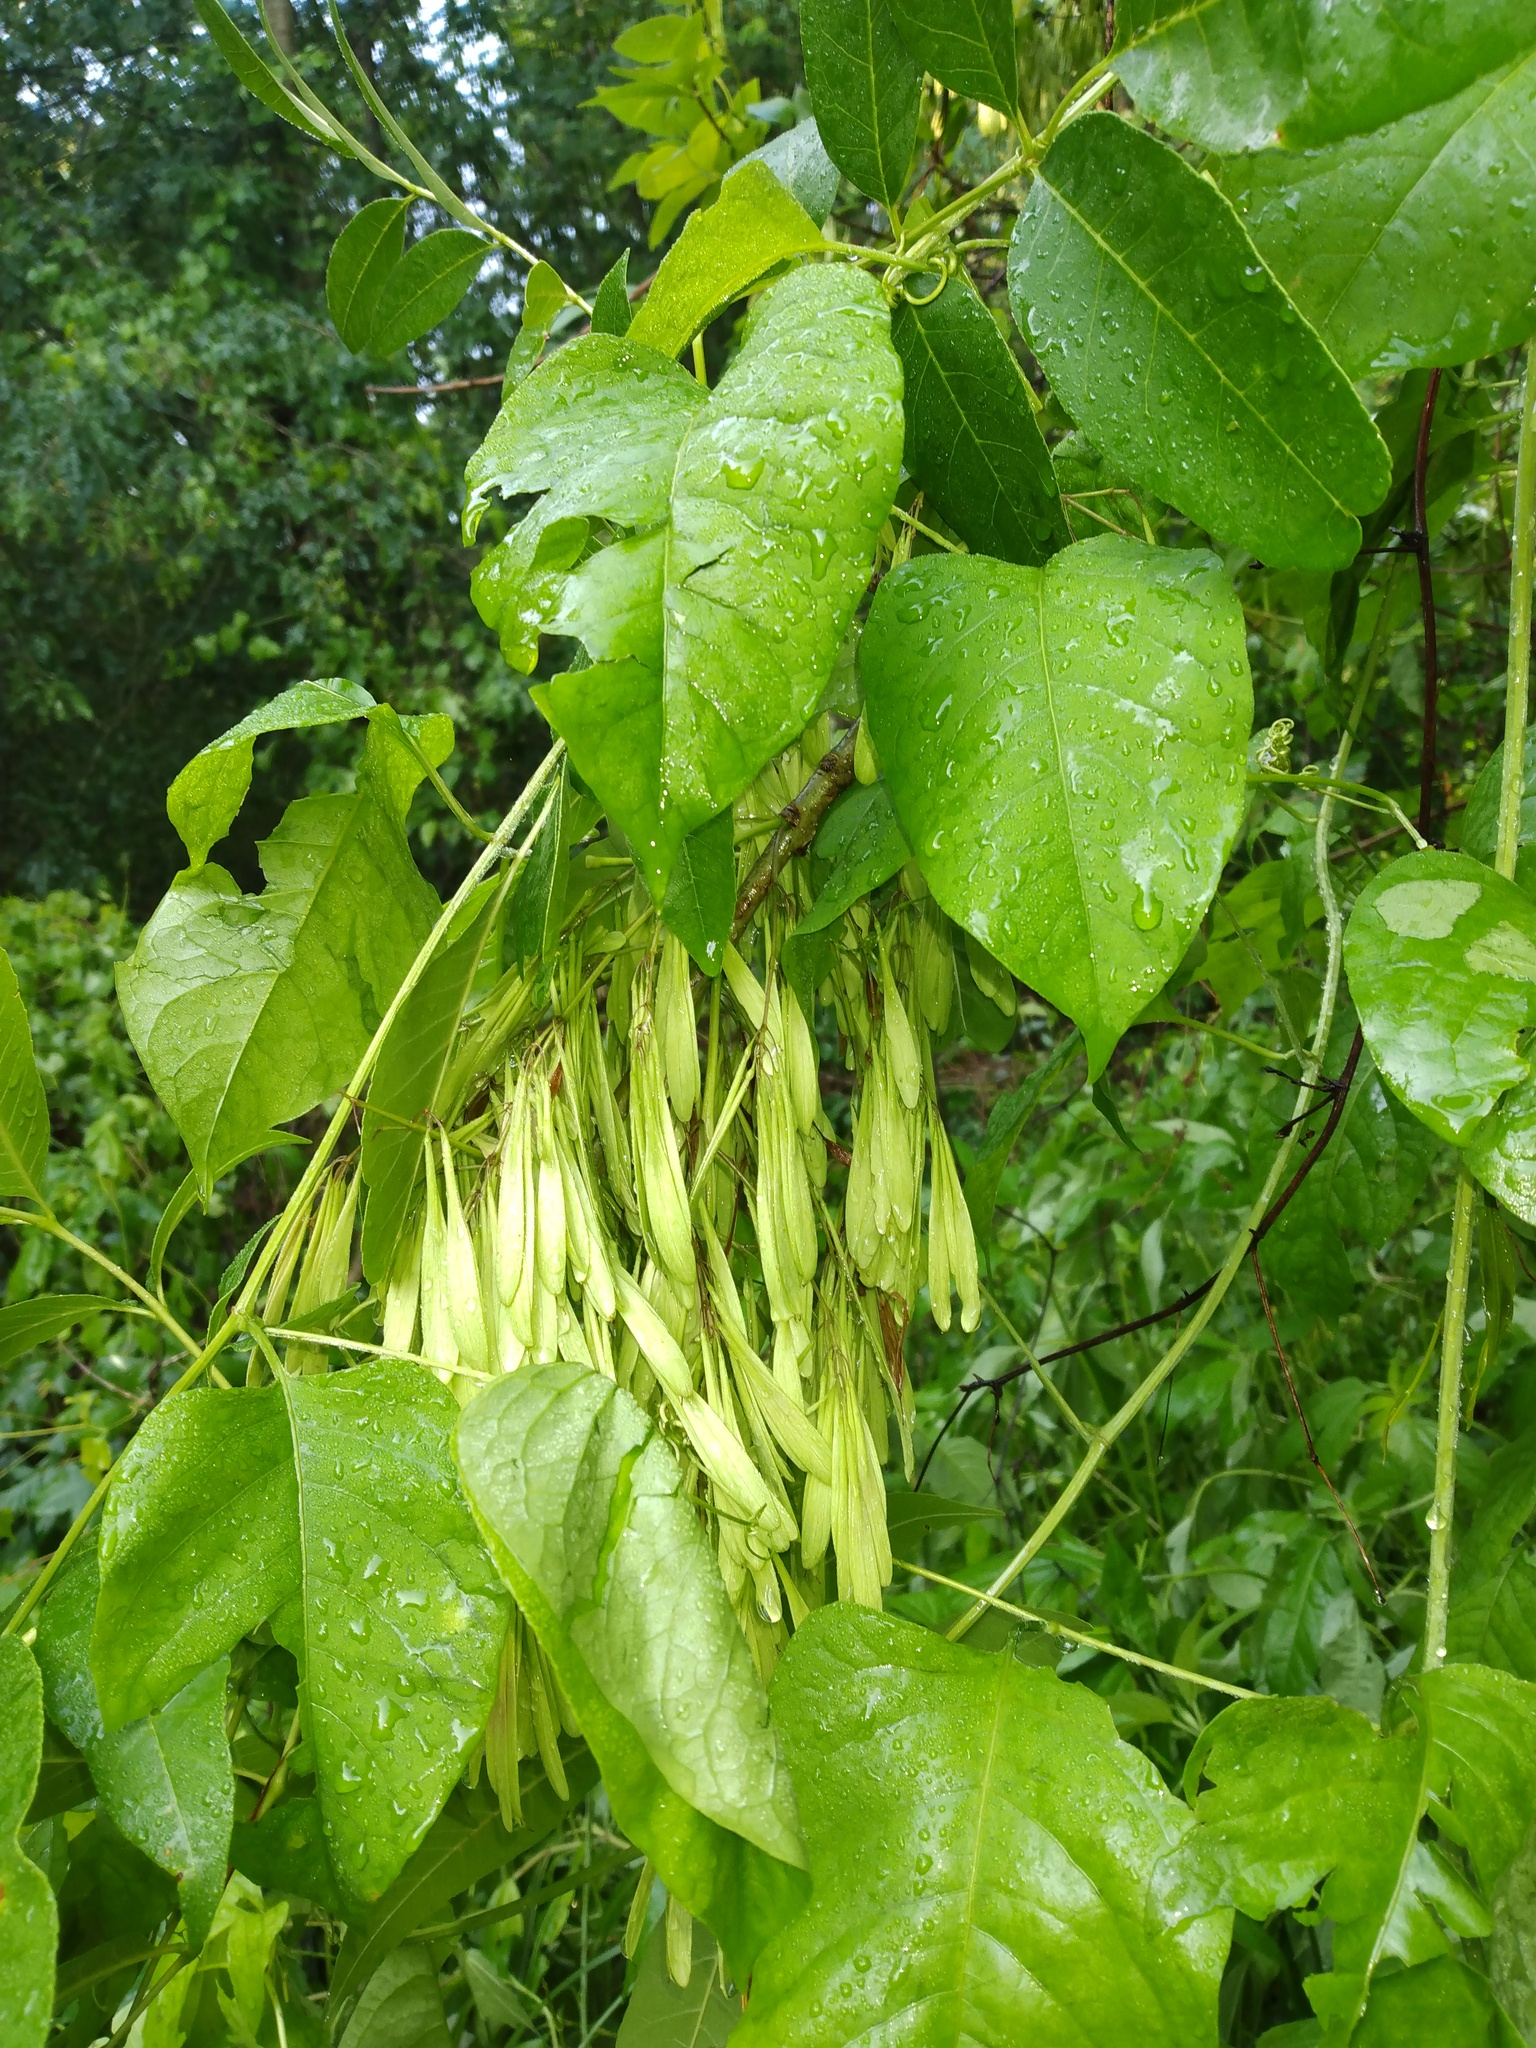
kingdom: Plantae
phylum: Tracheophyta
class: Magnoliopsida
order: Caryophyllales
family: Polygonaceae
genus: Brunnichia
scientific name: Brunnichia ovata
